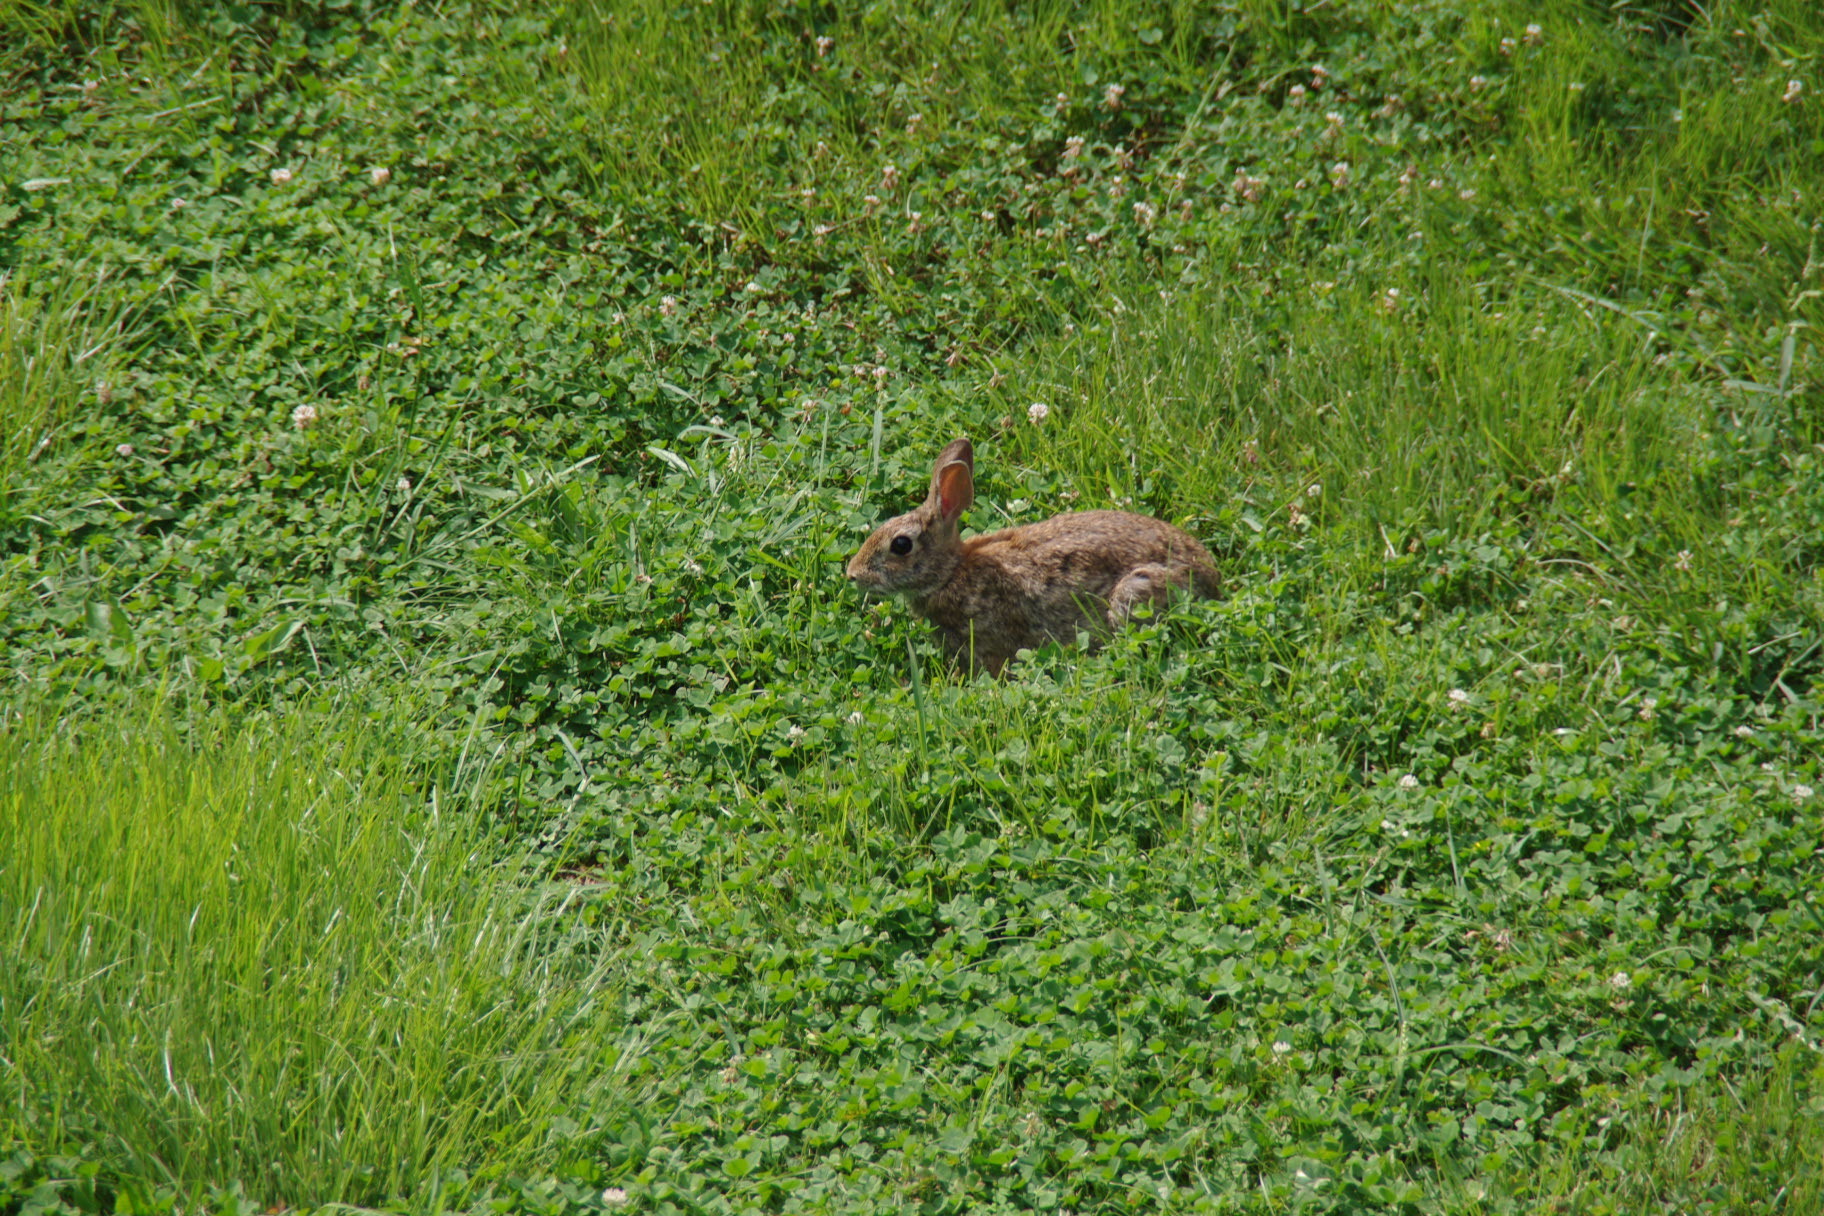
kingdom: Animalia
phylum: Chordata
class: Mammalia
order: Lagomorpha
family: Leporidae
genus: Sylvilagus
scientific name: Sylvilagus floridanus
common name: Eastern cottontail
